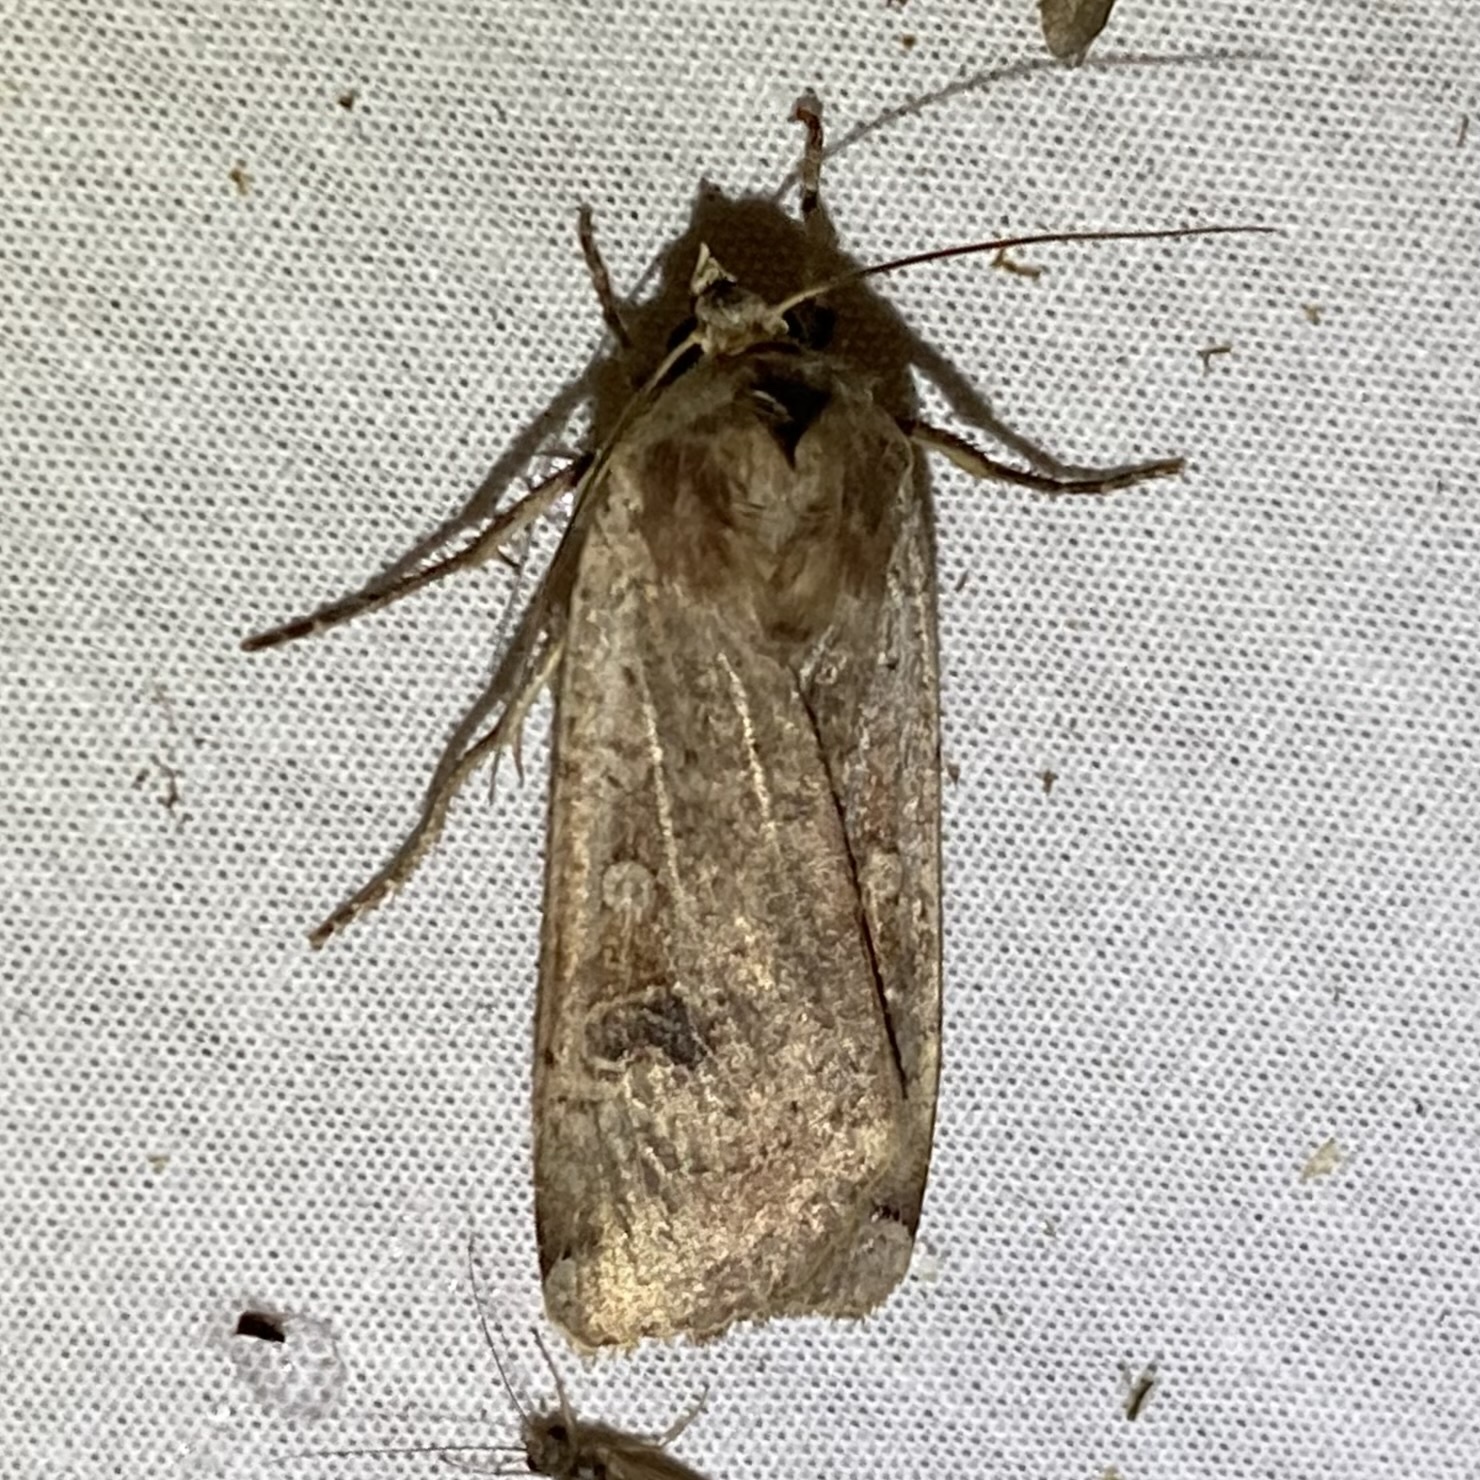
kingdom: Animalia
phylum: Arthropoda
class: Insecta
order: Lepidoptera
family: Noctuidae
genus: Noctua
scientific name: Noctua pronuba
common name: Large yellow underwing
